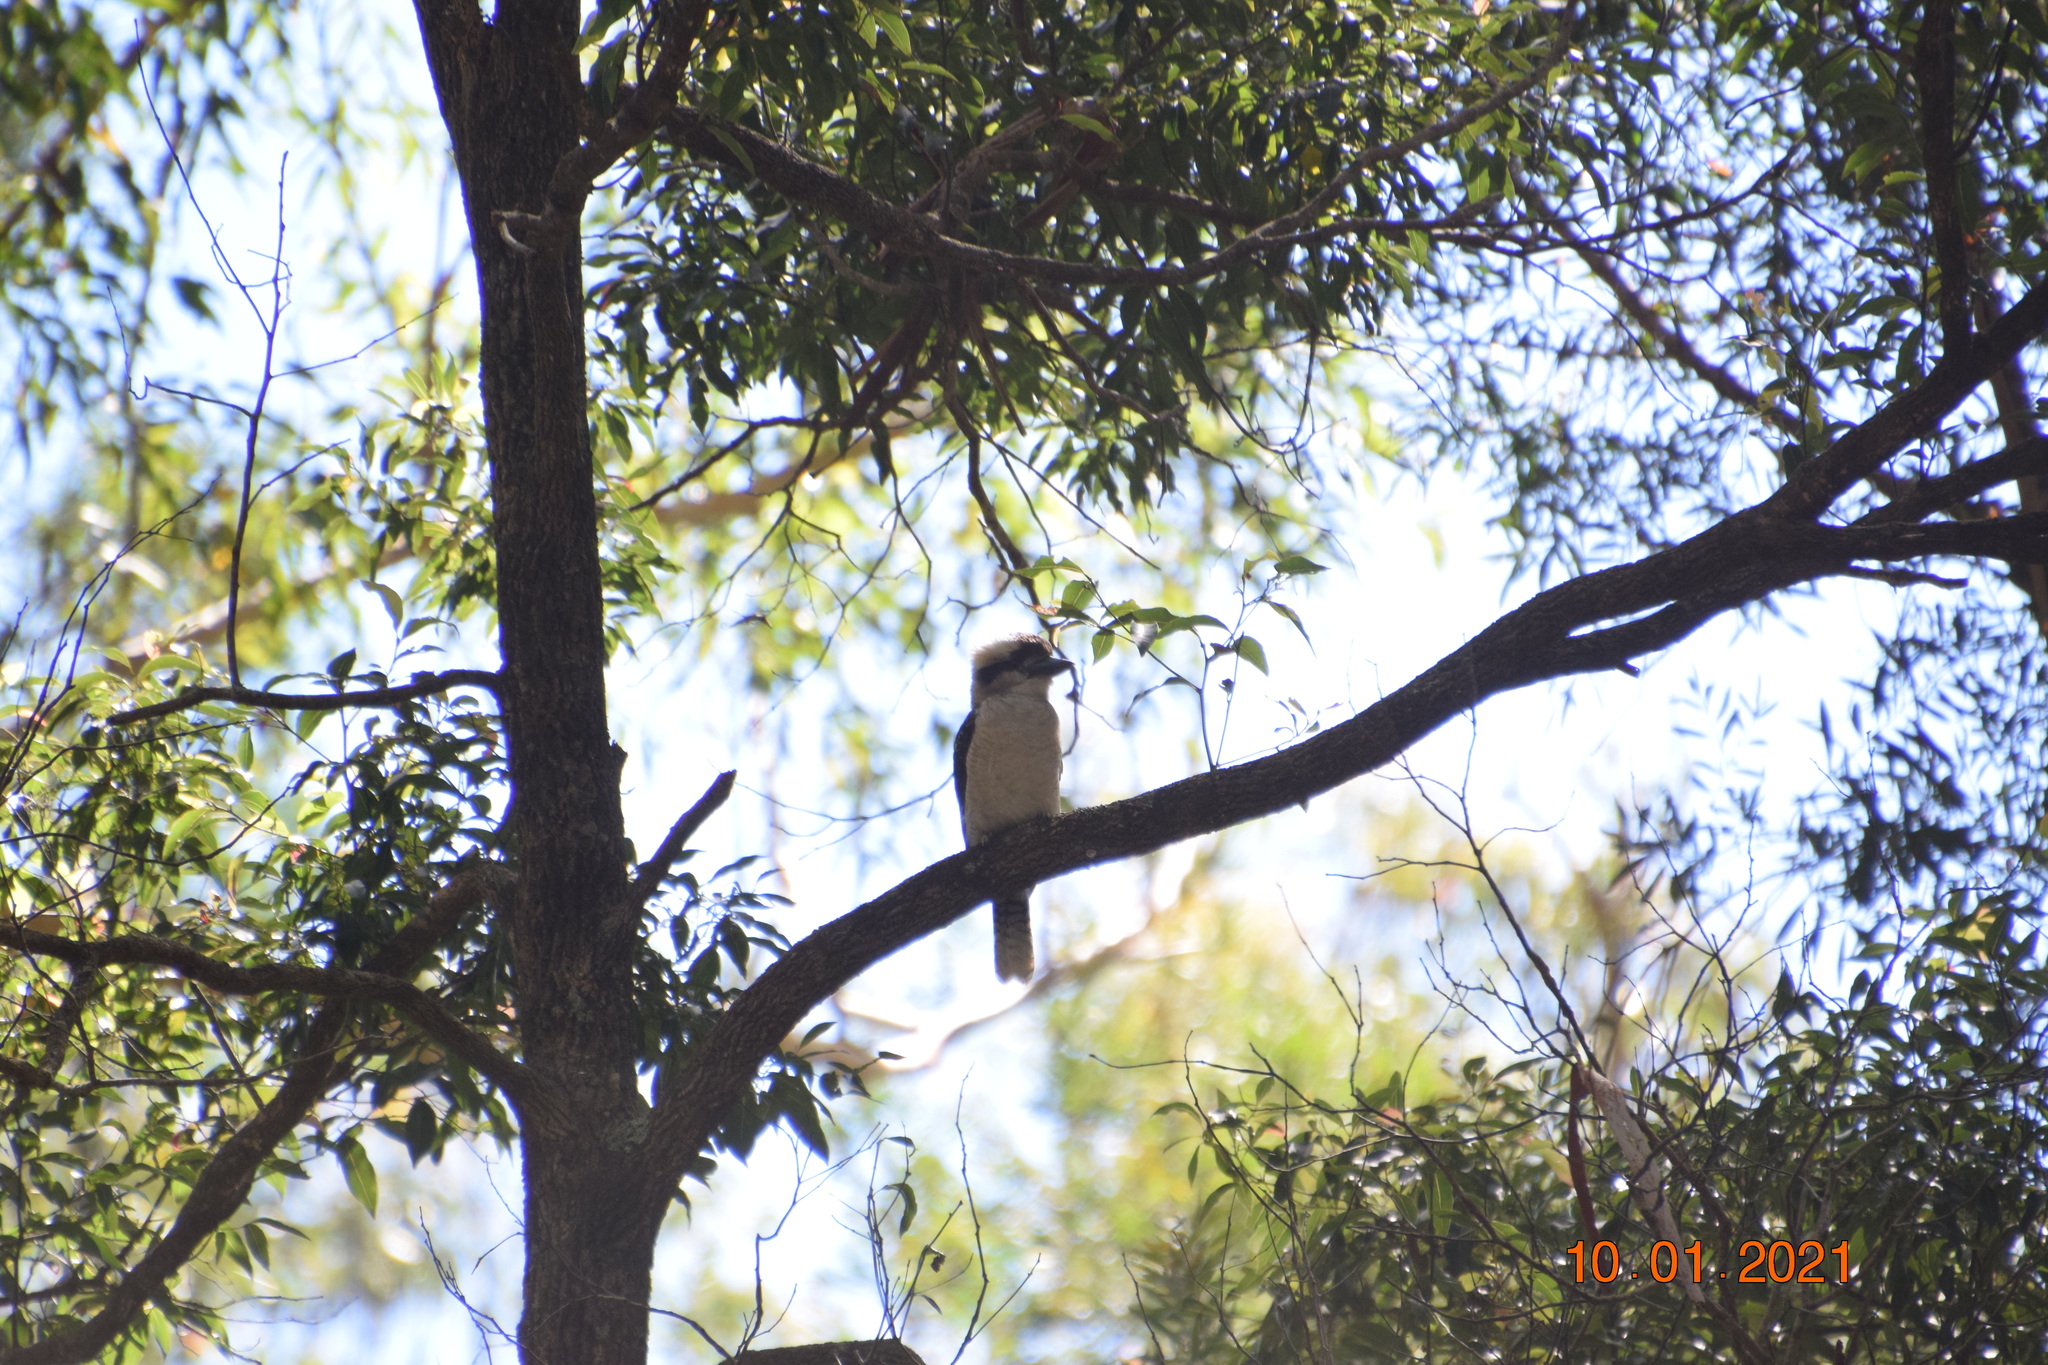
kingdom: Animalia
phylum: Chordata
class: Aves
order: Coraciiformes
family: Alcedinidae
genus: Dacelo
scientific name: Dacelo novaeguineae
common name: Laughing kookaburra
